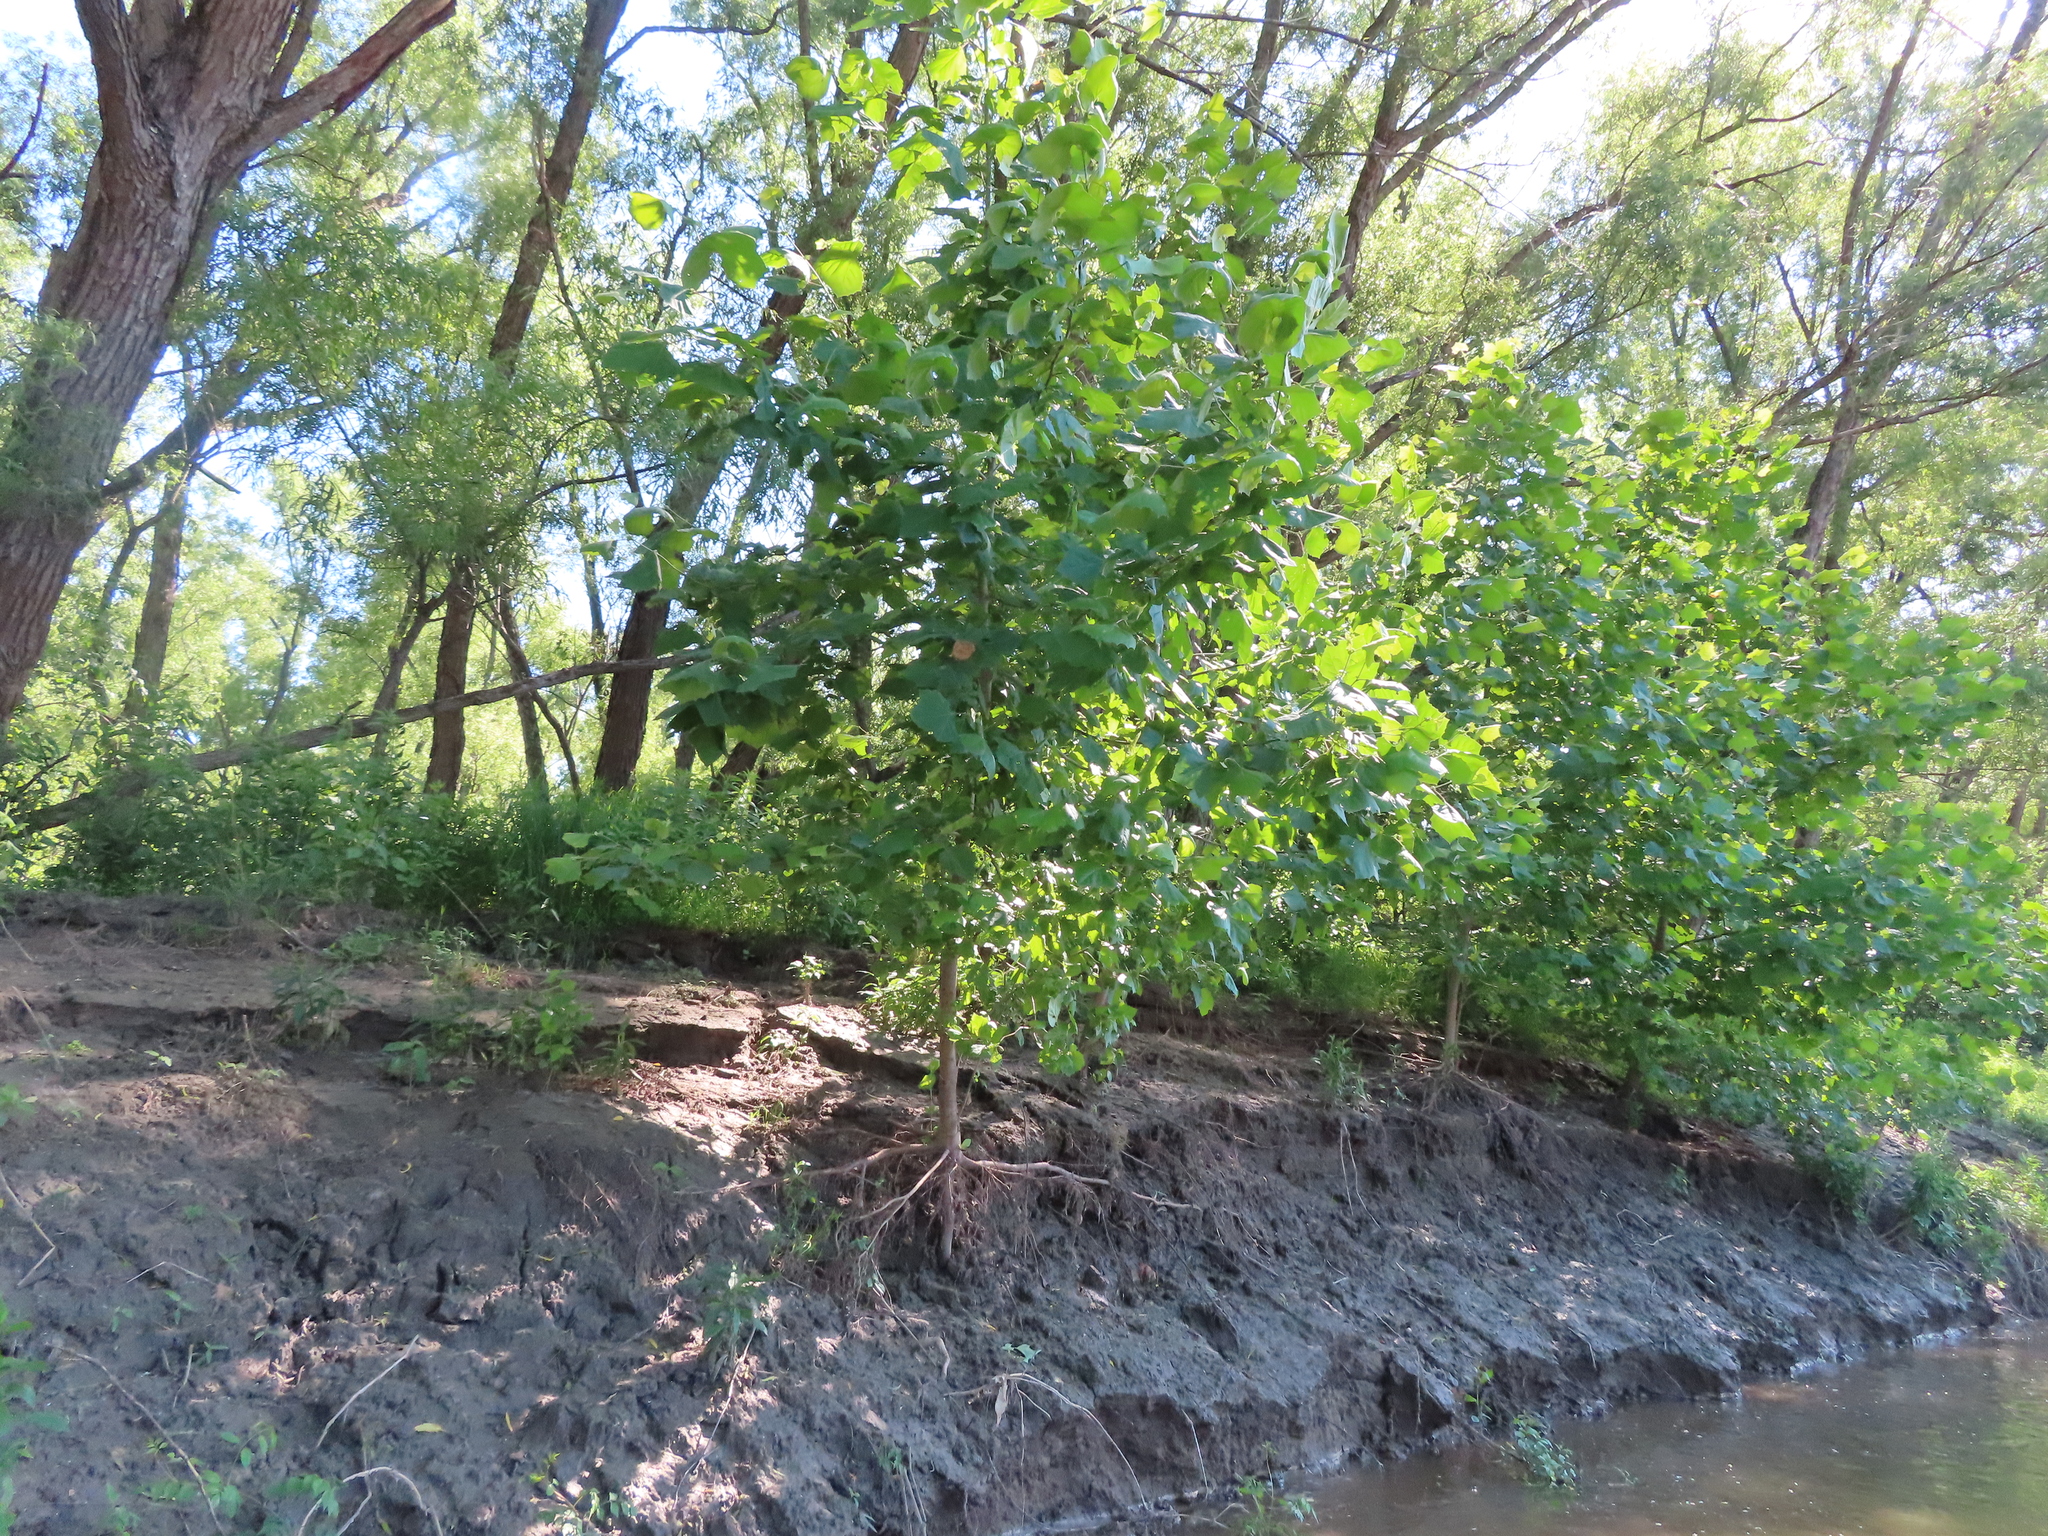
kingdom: Plantae
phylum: Tracheophyta
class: Magnoliopsida
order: Proteales
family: Platanaceae
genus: Platanus
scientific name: Platanus occidentalis
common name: American sycamore
